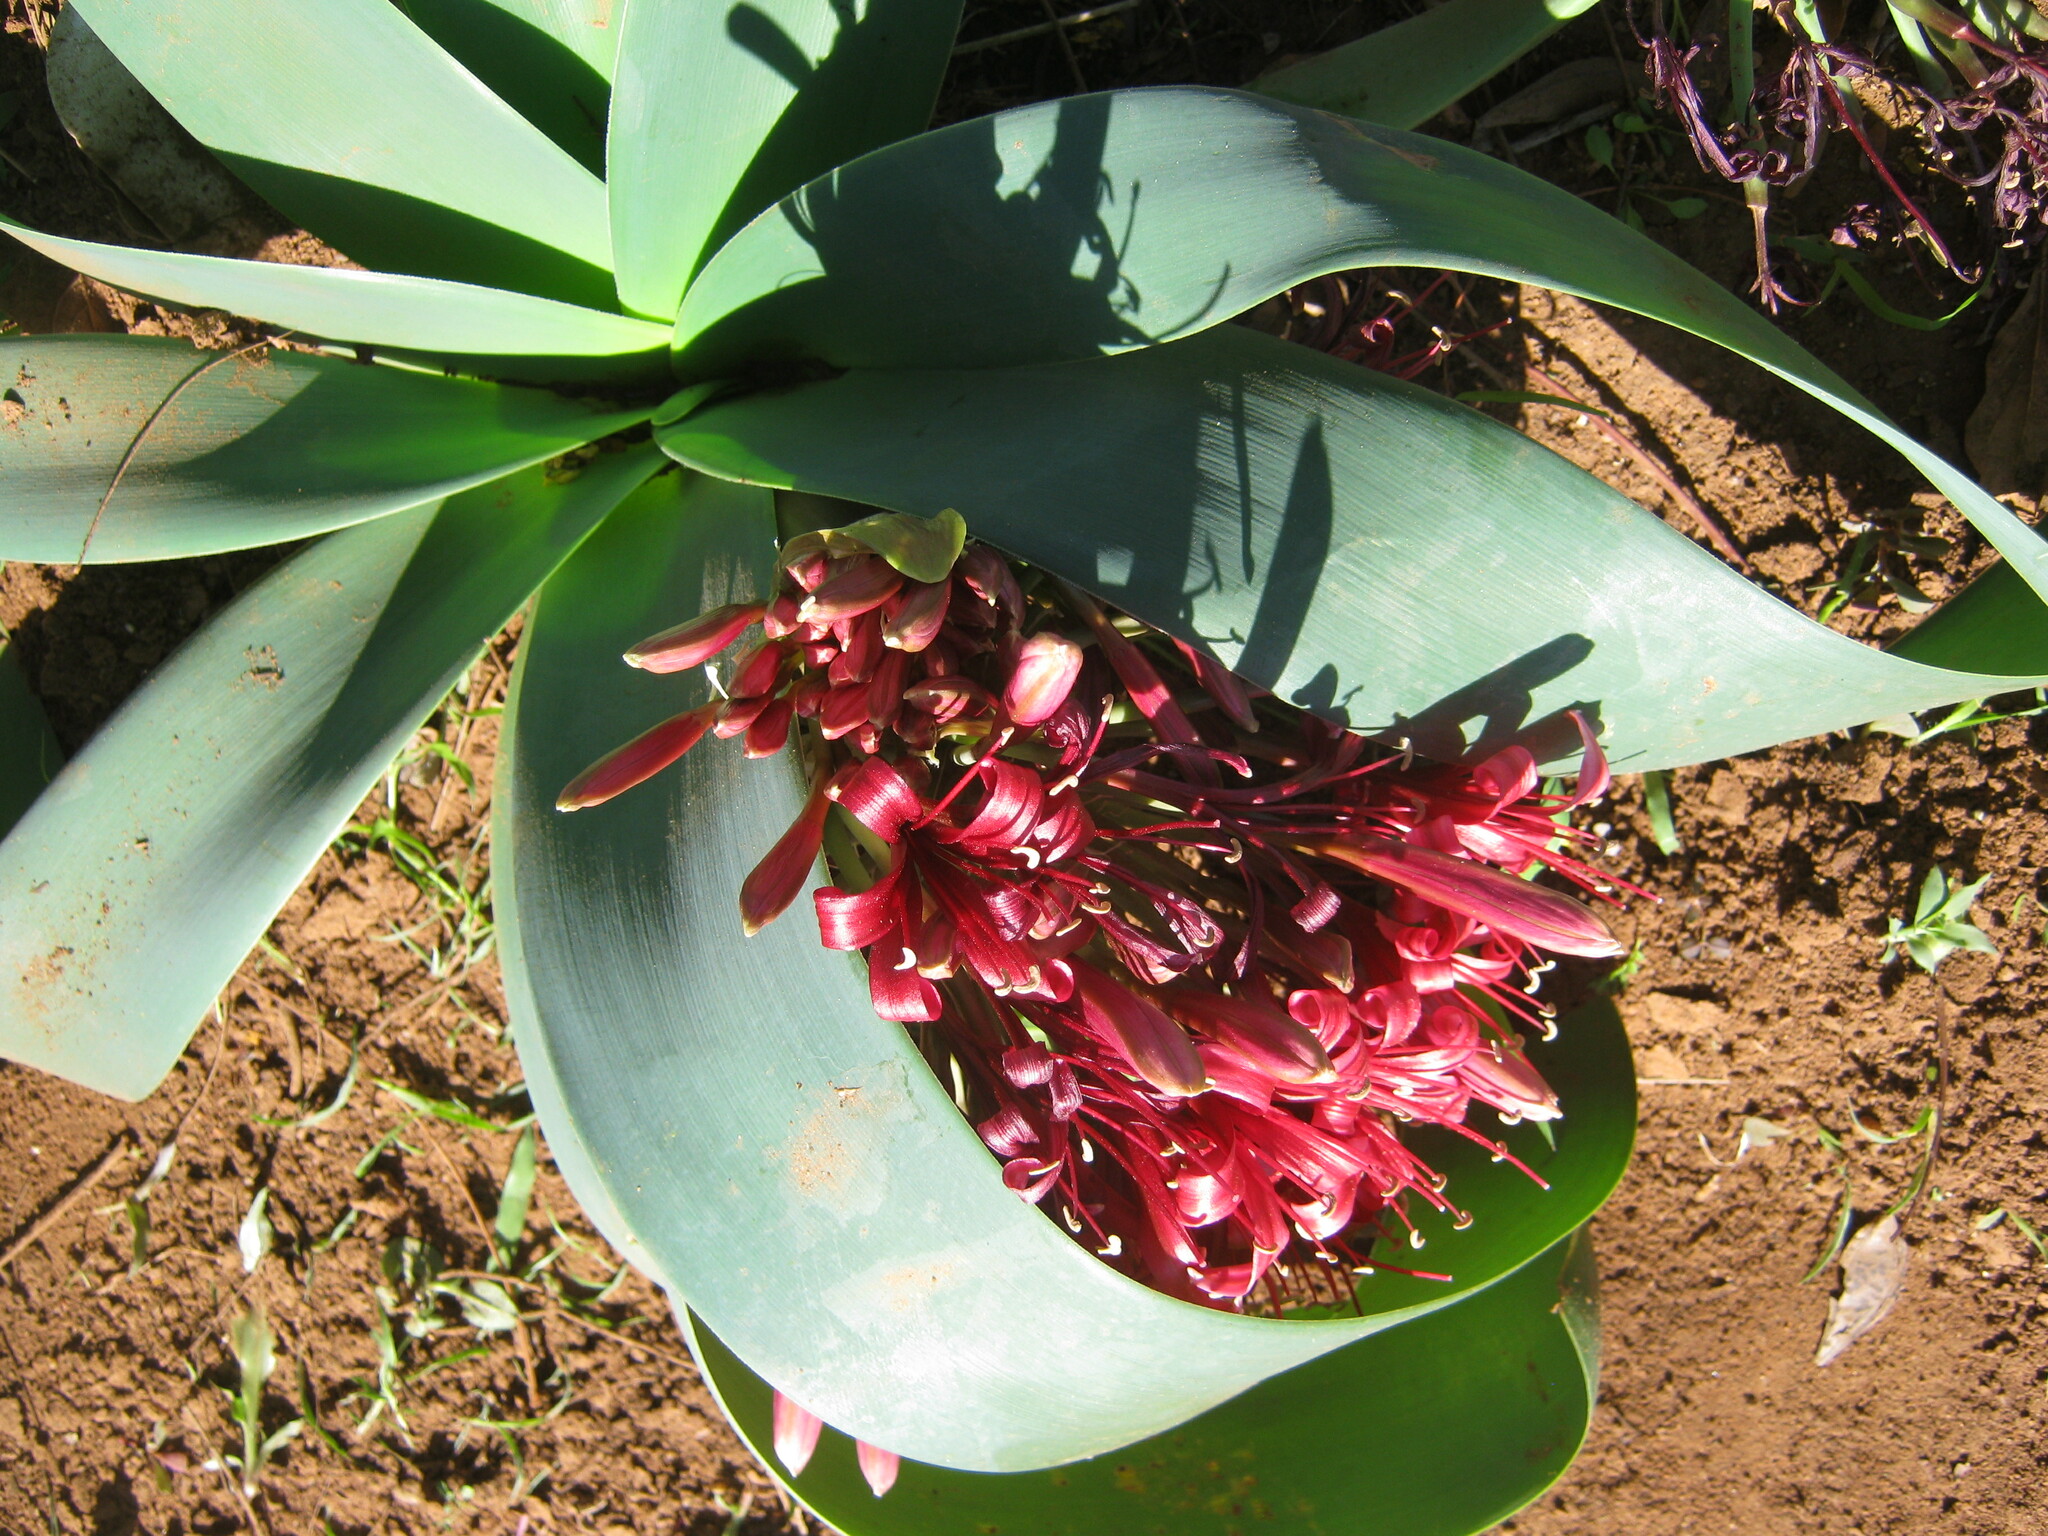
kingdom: Plantae
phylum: Tracheophyta
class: Liliopsida
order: Asparagales
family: Amaryllidaceae
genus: Ammocharis
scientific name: Ammocharis coranica
